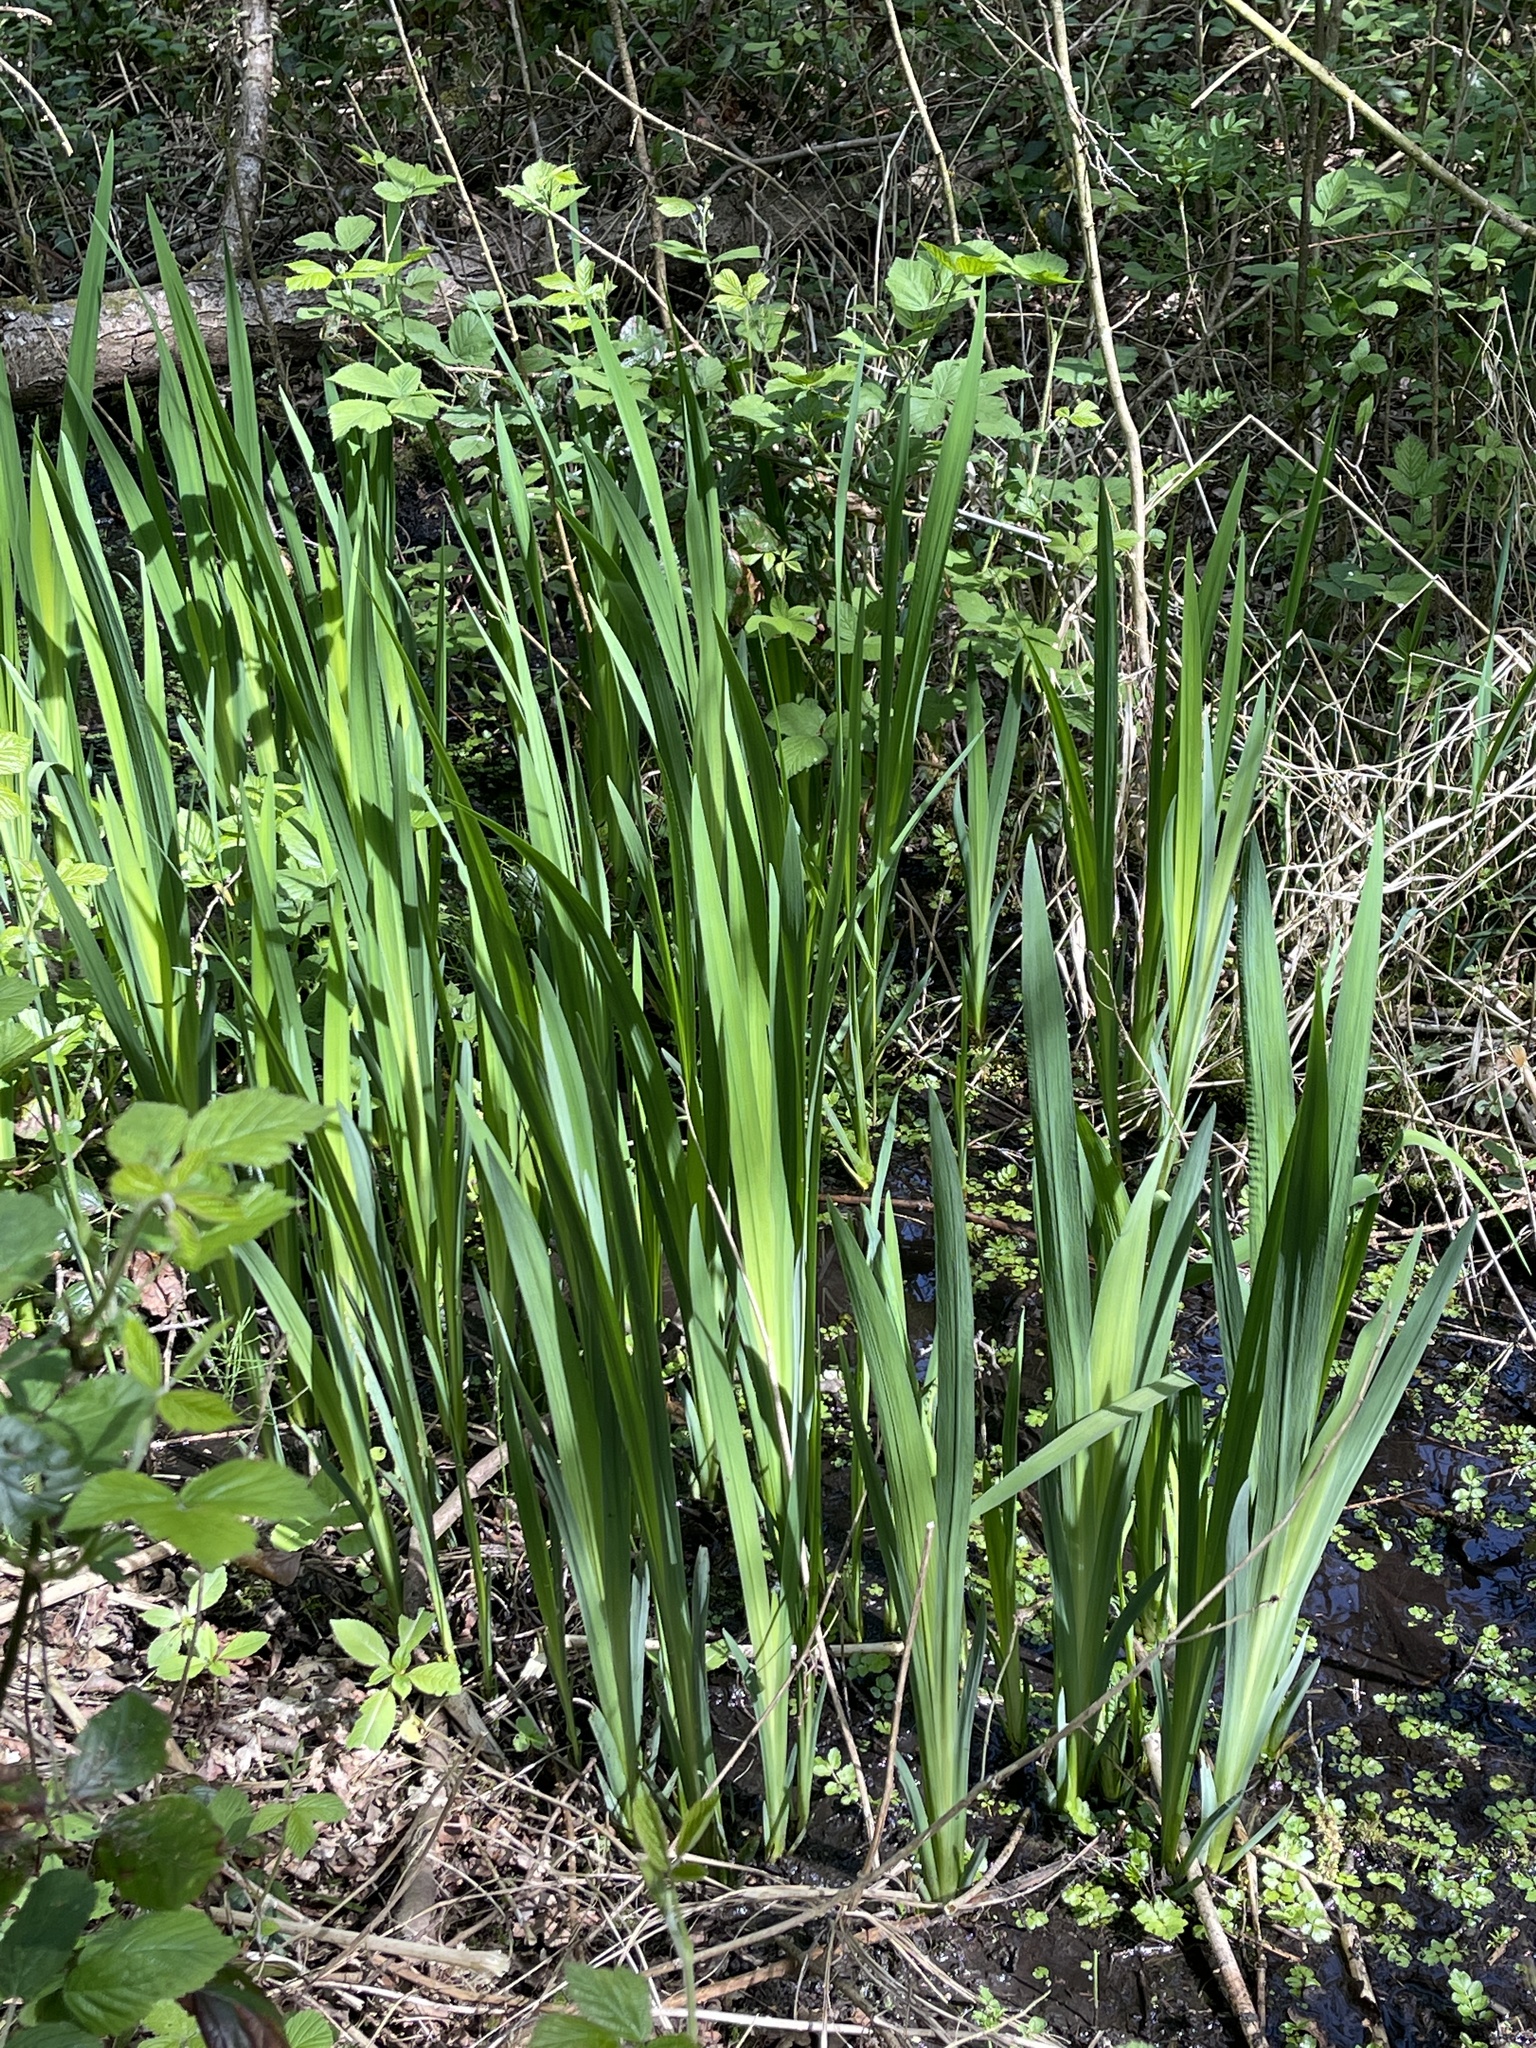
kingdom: Plantae
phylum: Tracheophyta
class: Liliopsida
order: Asparagales
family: Iridaceae
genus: Iris
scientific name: Iris pseudacorus
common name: Yellow flag
